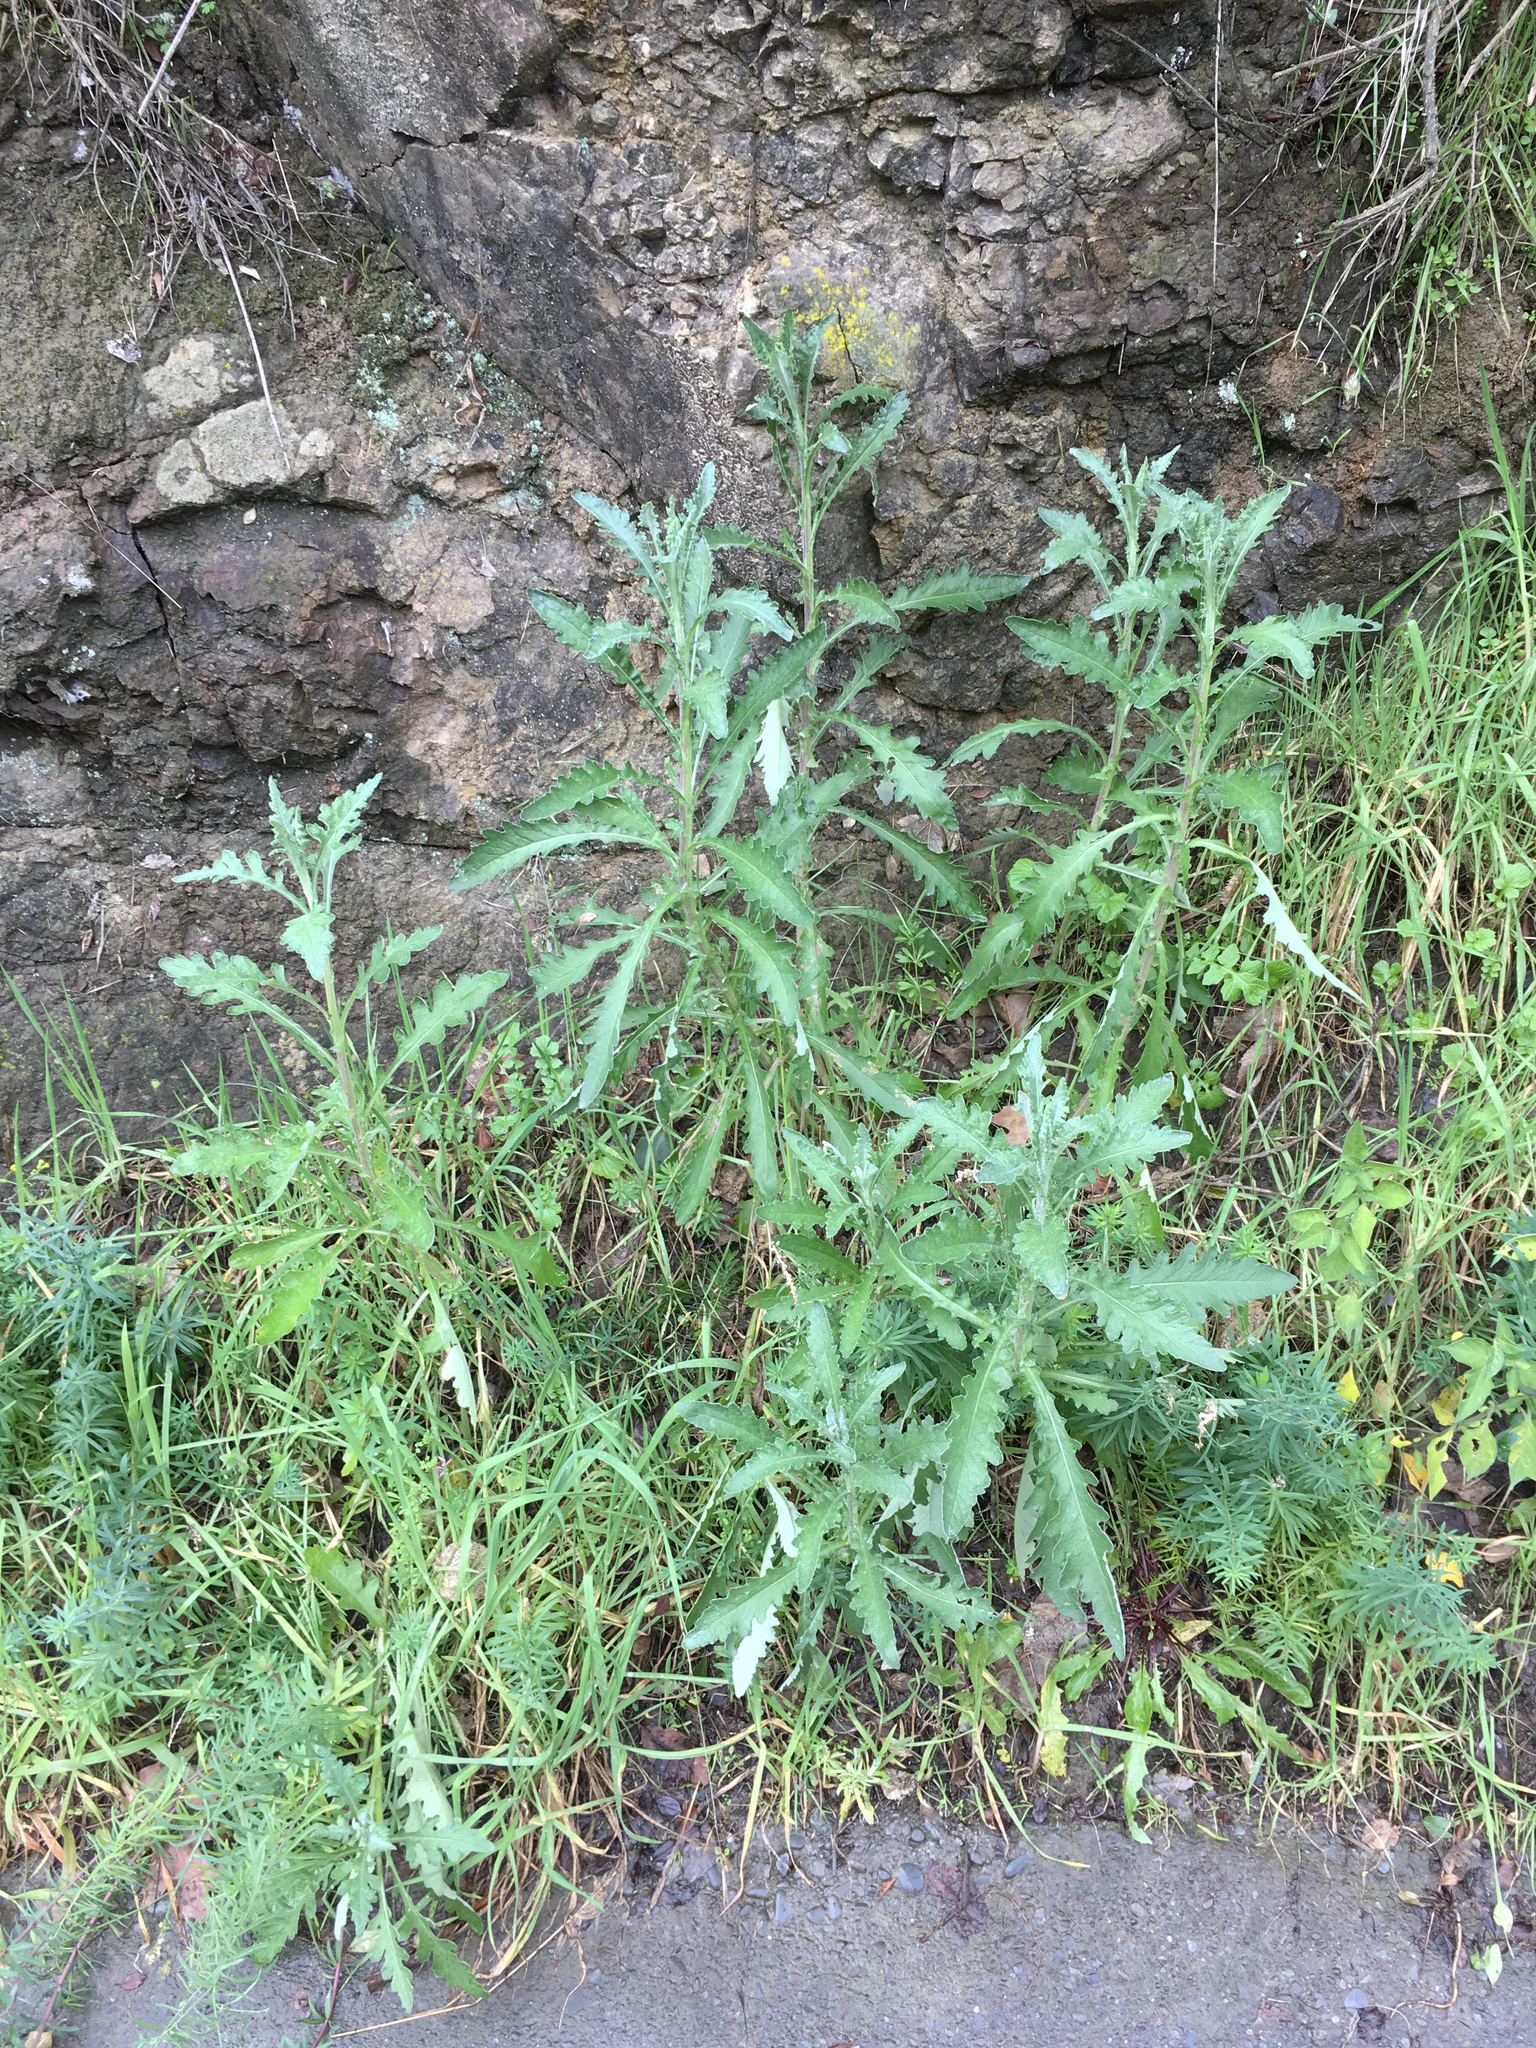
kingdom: Plantae
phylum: Tracheophyta
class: Magnoliopsida
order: Asterales
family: Asteraceae
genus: Senecio
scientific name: Senecio glomeratus
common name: Cutleaf burnweed
